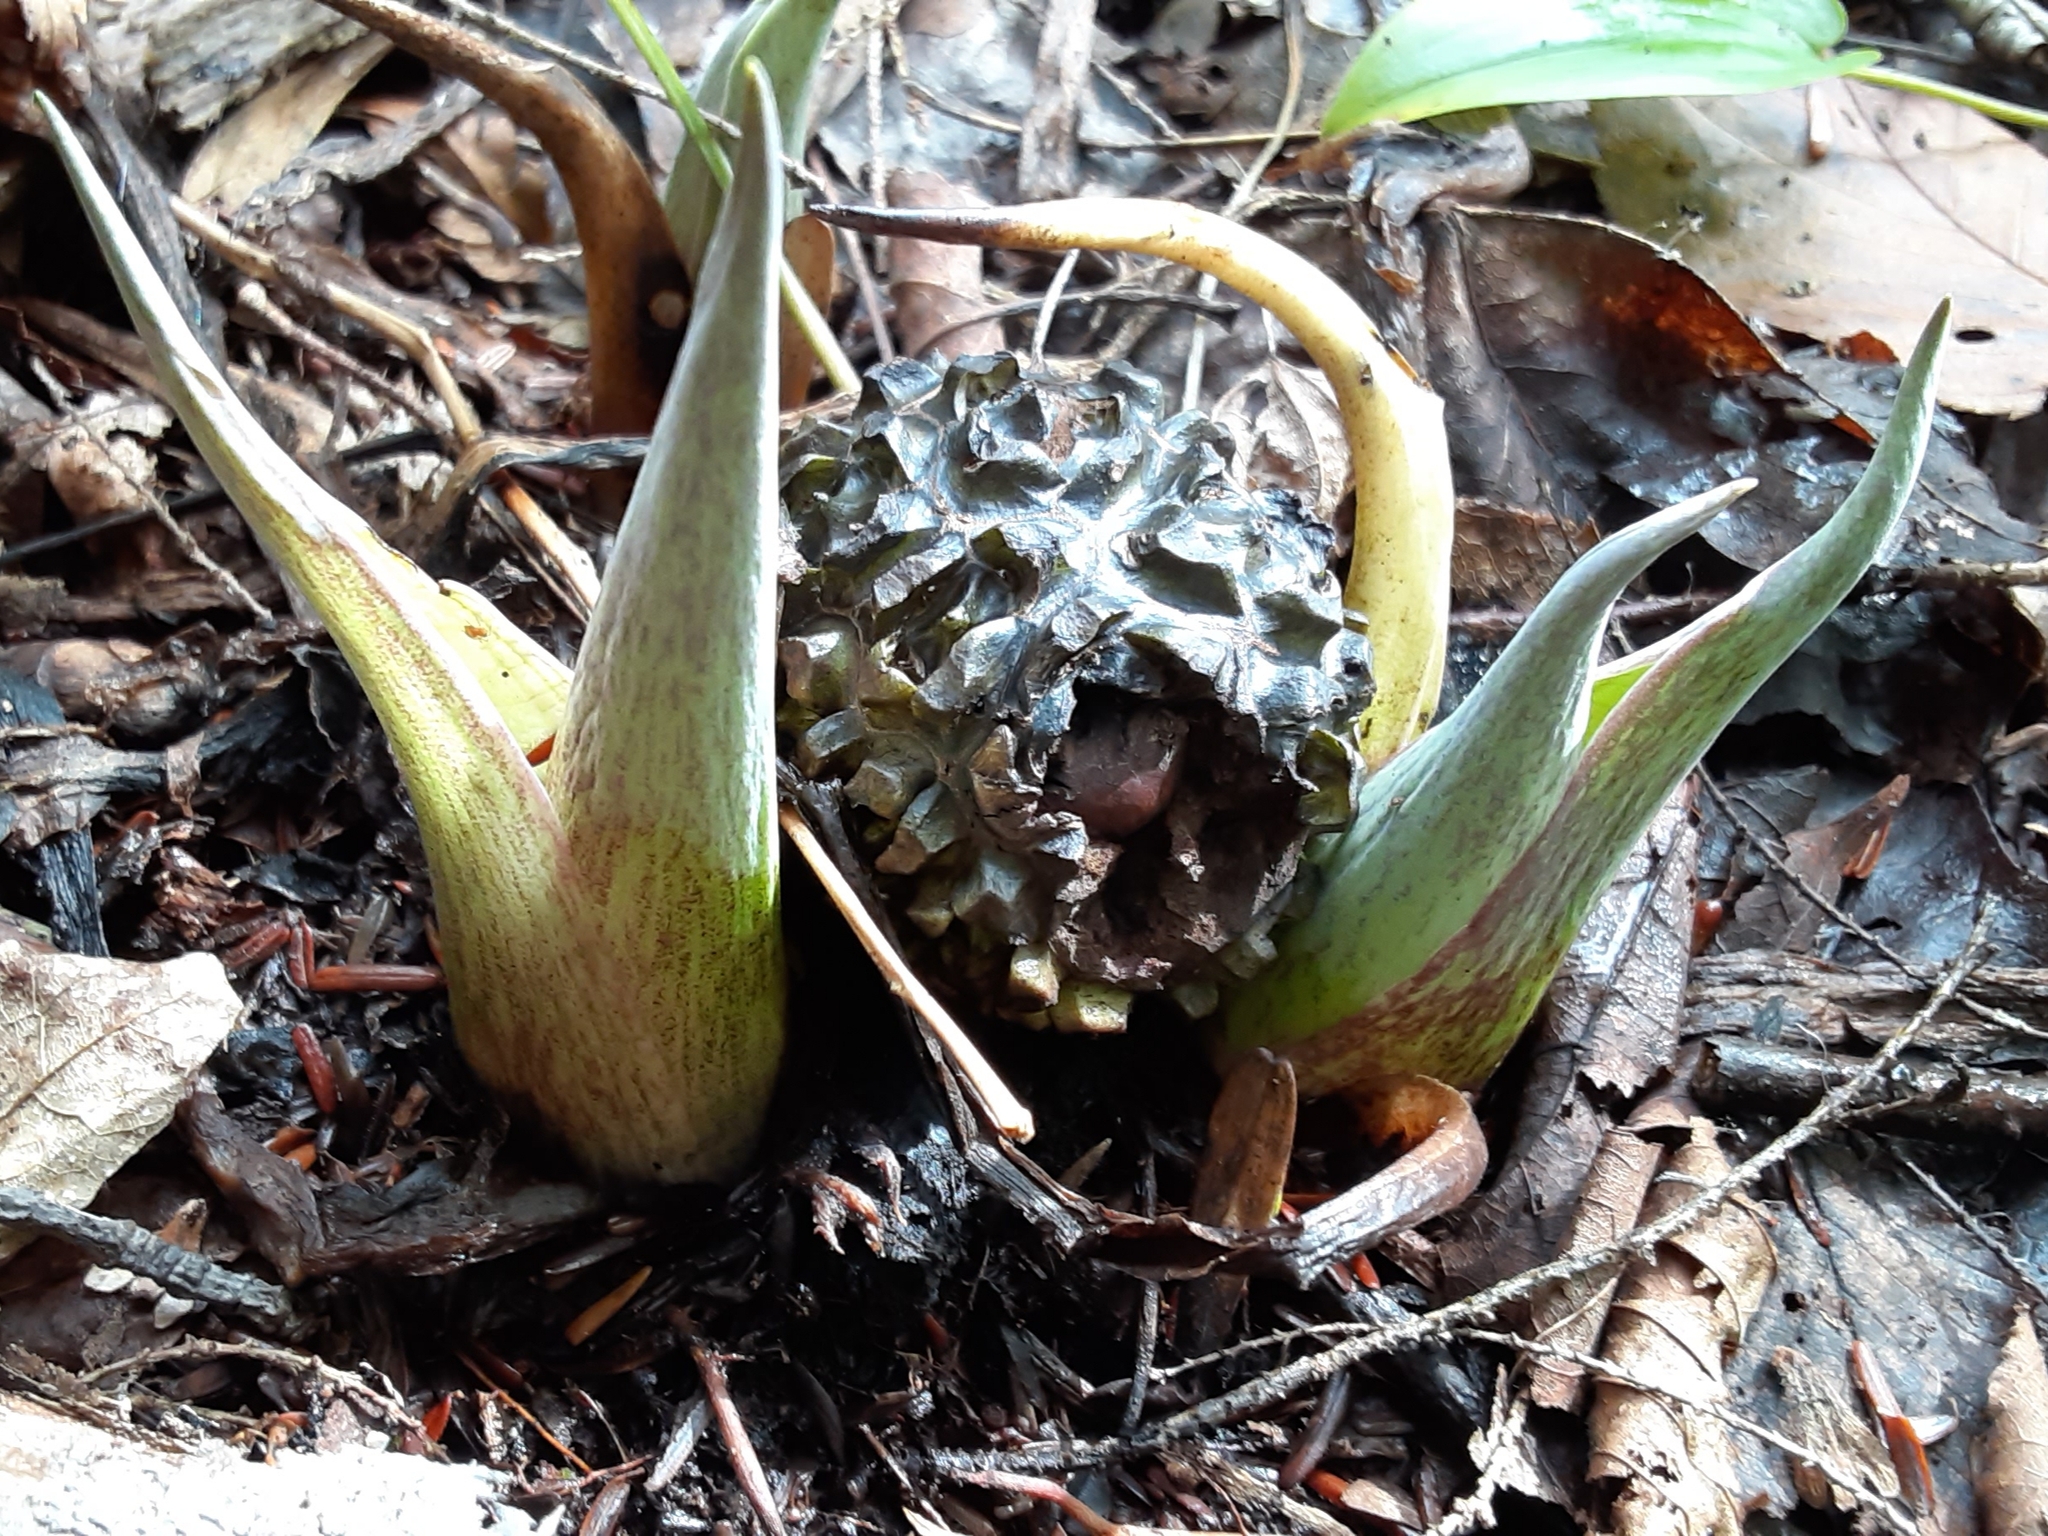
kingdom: Plantae
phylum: Tracheophyta
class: Liliopsida
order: Alismatales
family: Araceae
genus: Symplocarpus
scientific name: Symplocarpus foetidus
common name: Eastern skunk cabbage
